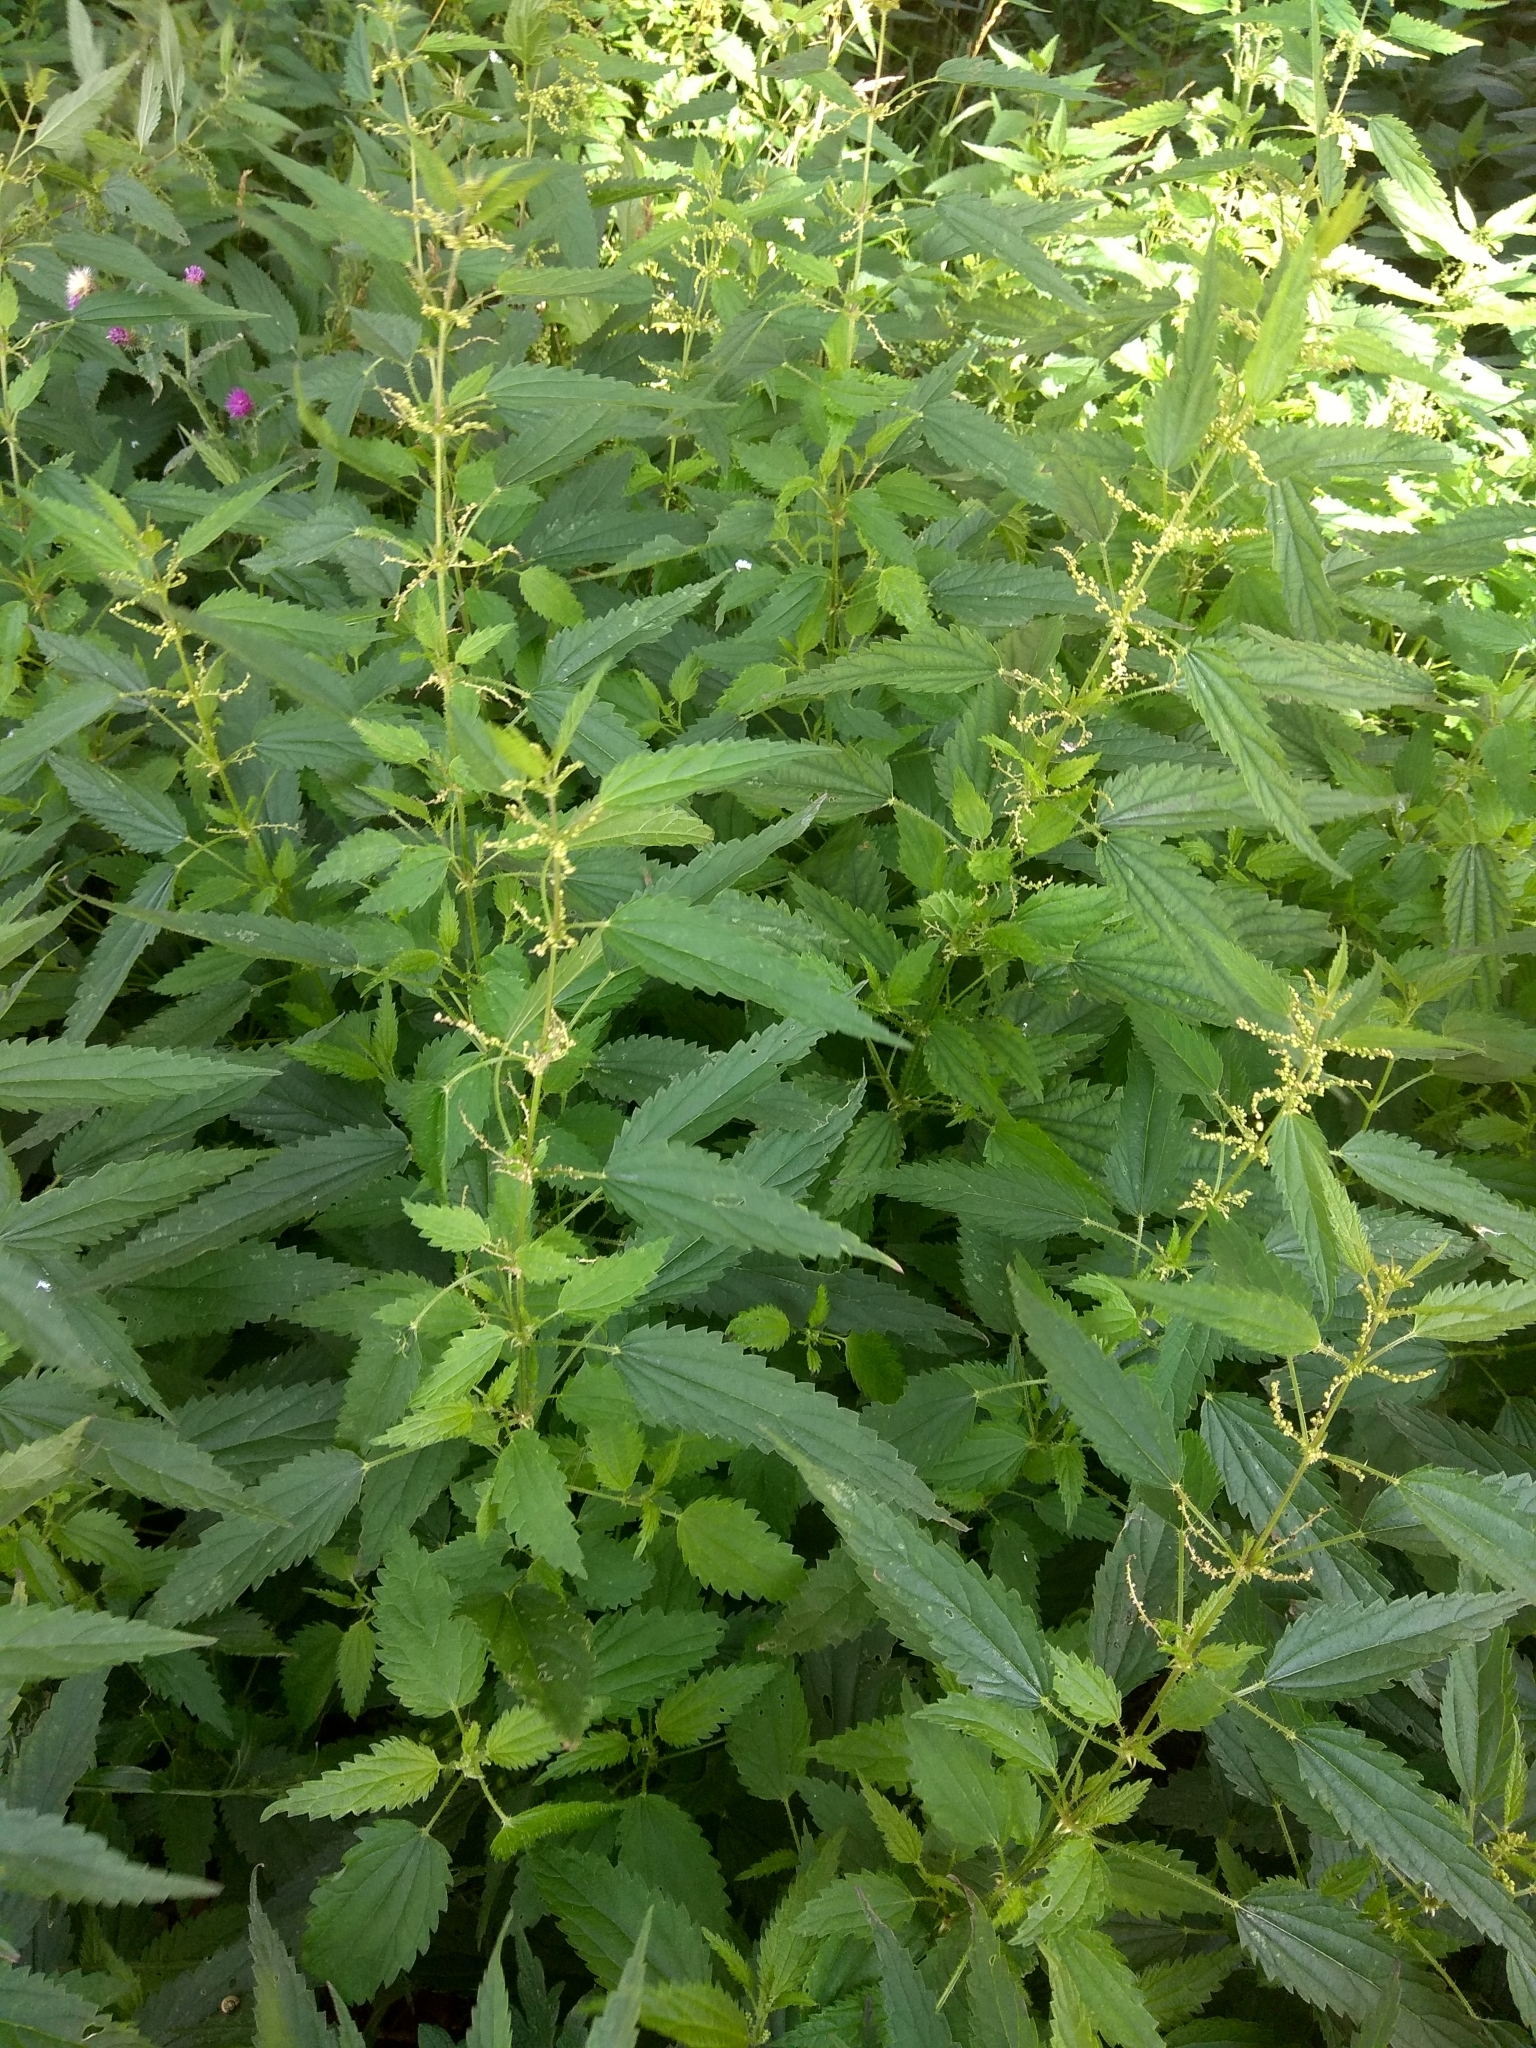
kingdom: Plantae
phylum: Tracheophyta
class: Magnoliopsida
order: Rosales
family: Urticaceae
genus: Urtica
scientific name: Urtica dioica
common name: Common nettle
